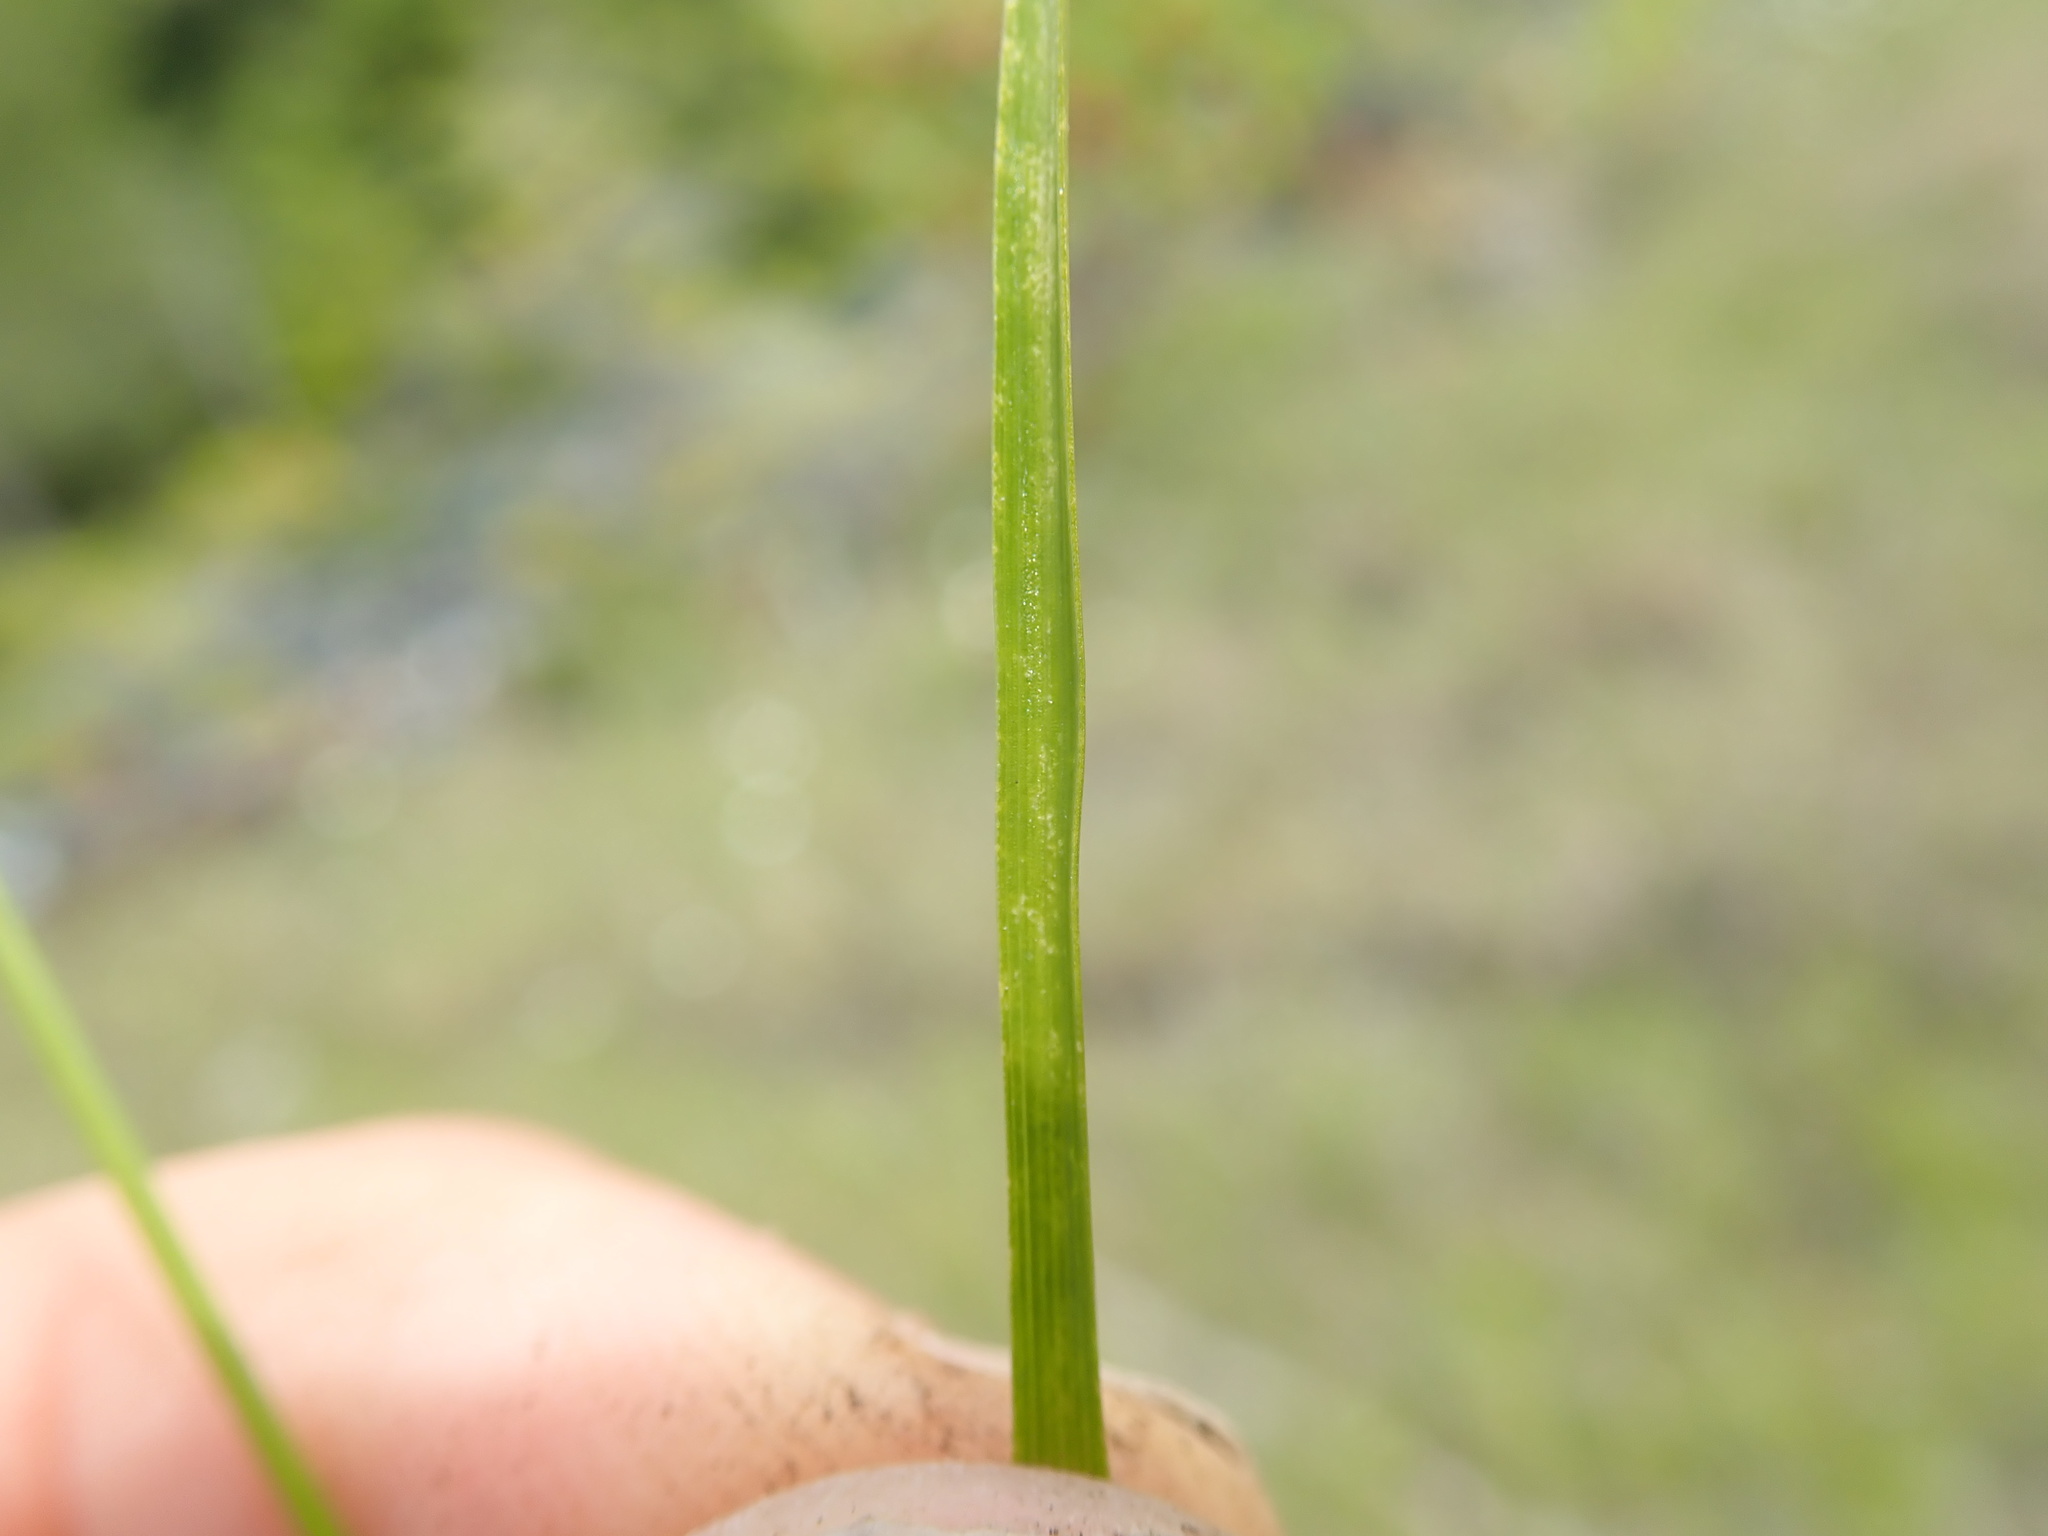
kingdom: Plantae
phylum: Tracheophyta
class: Liliopsida
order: Poales
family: Cyperaceae
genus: Carex
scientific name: Carex
